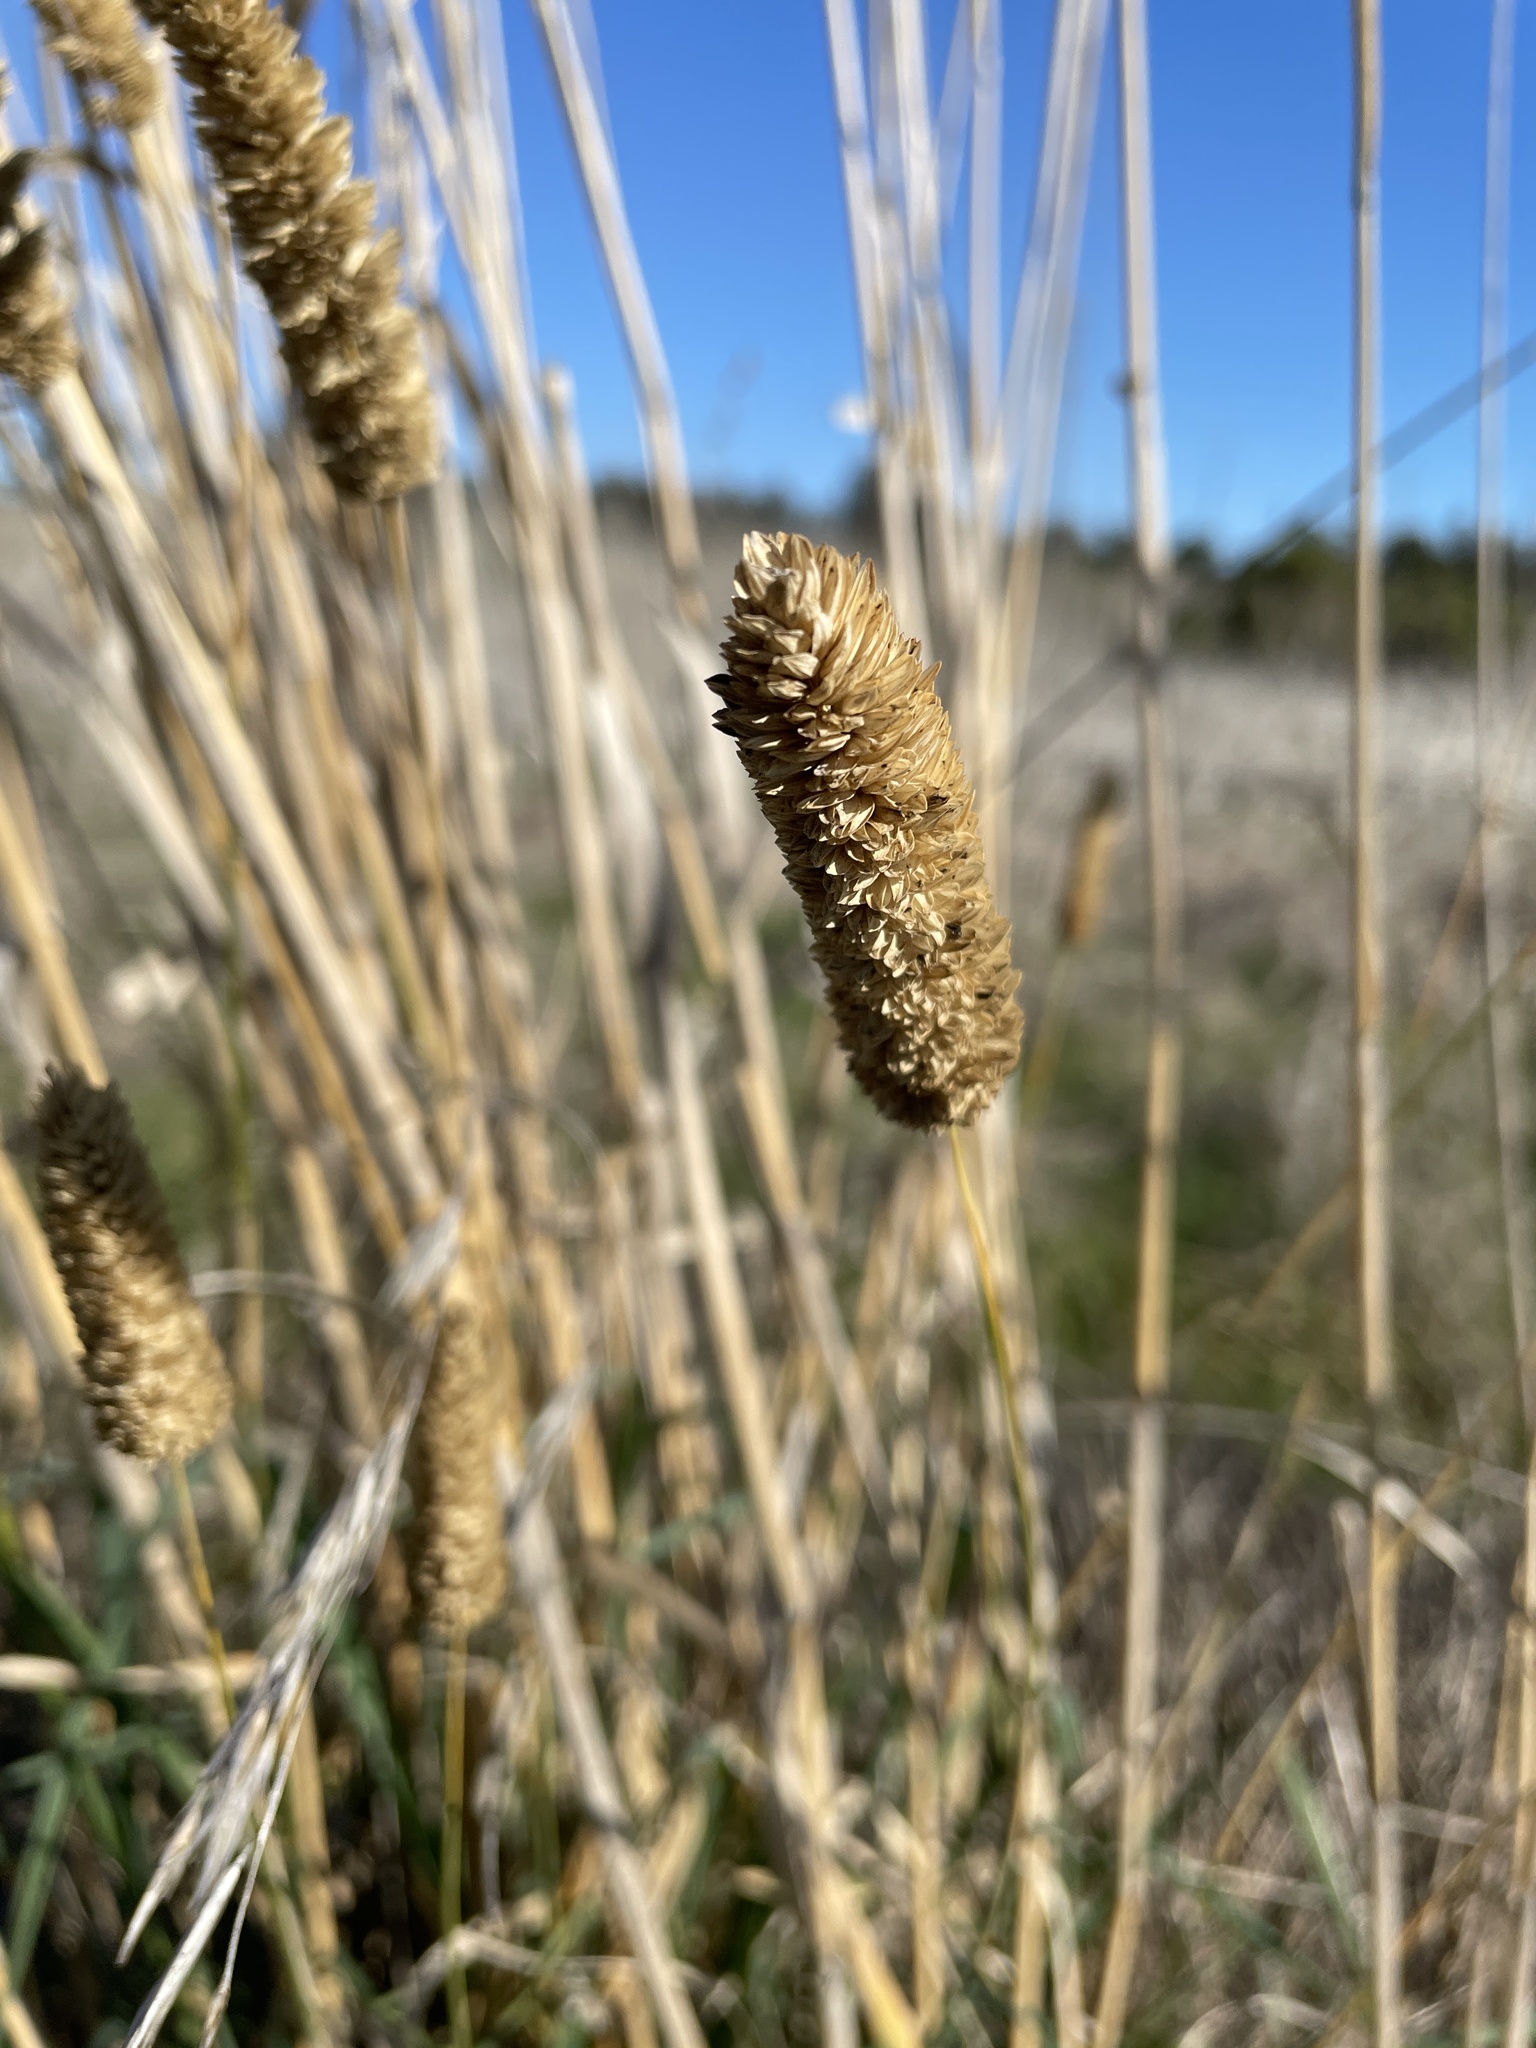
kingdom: Plantae
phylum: Tracheophyta
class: Liliopsida
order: Poales
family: Poaceae
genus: Phalaris
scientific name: Phalaris aquatica
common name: Bulbous canary-grass
